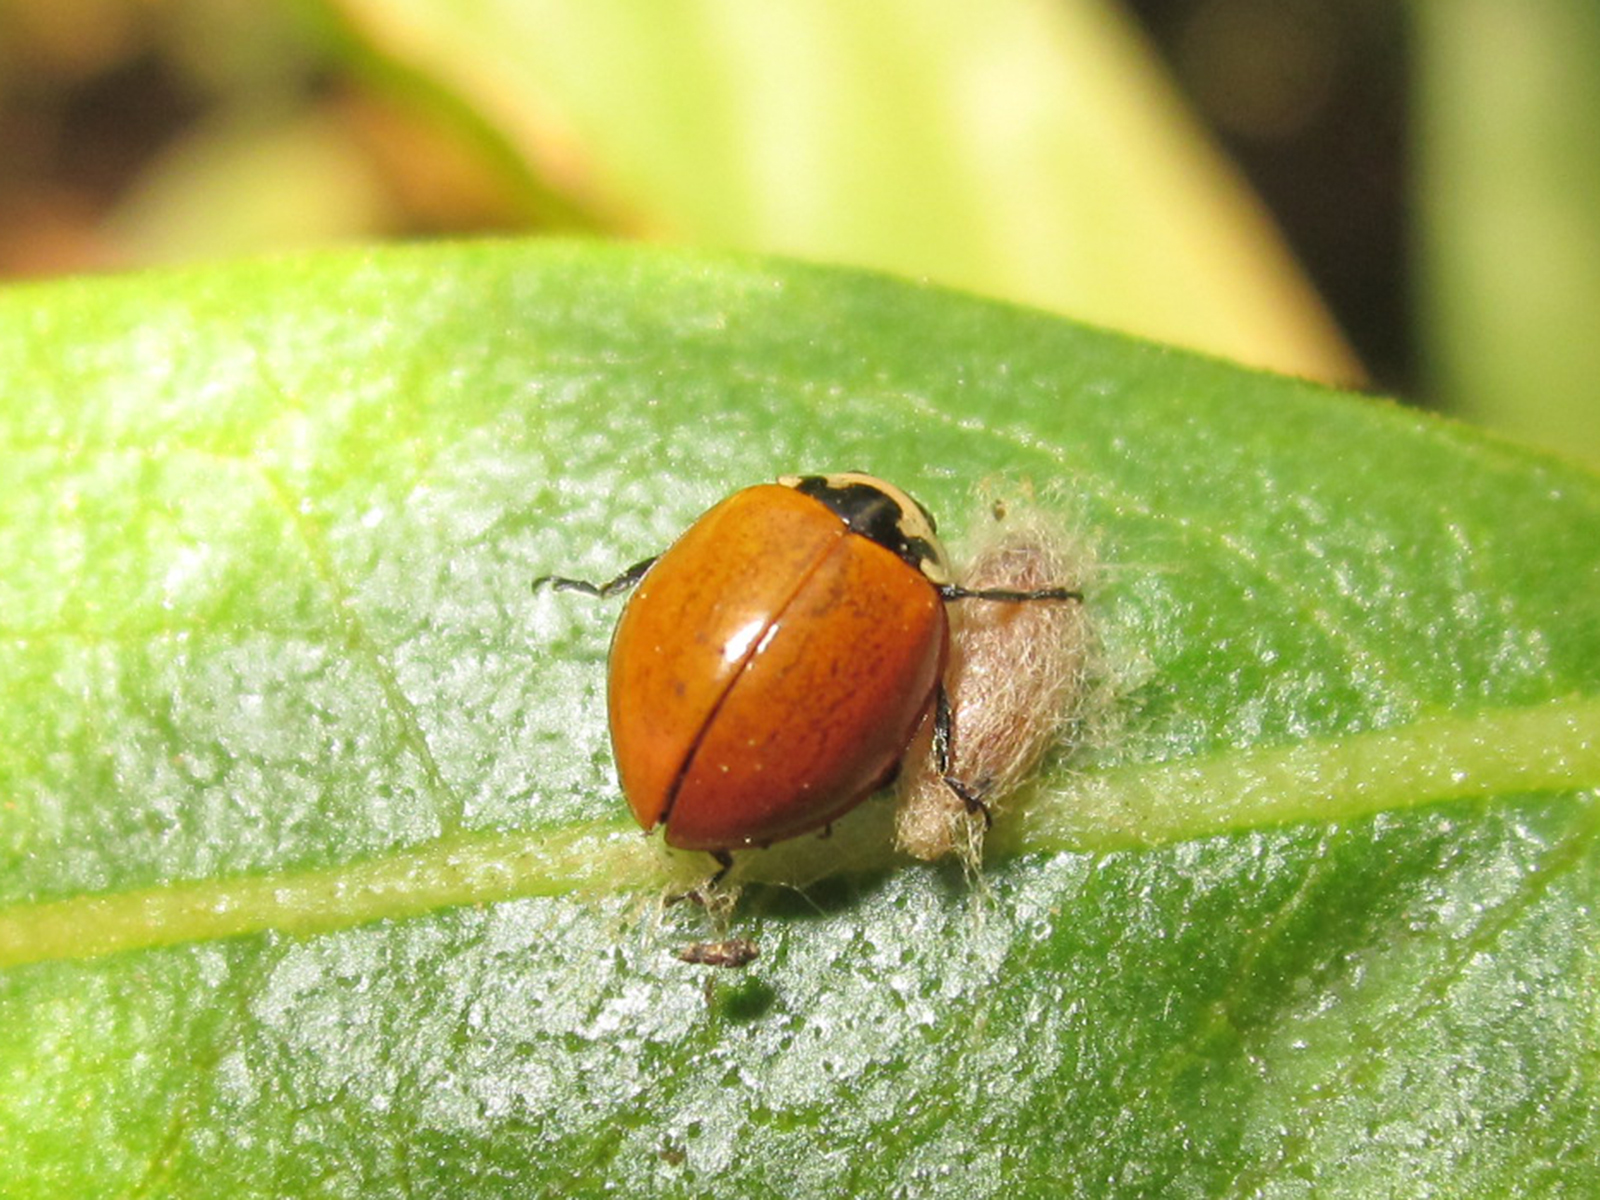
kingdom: Animalia
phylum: Arthropoda
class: Insecta
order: Coleoptera
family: Coccinellidae
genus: Cycloneda
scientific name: Cycloneda
